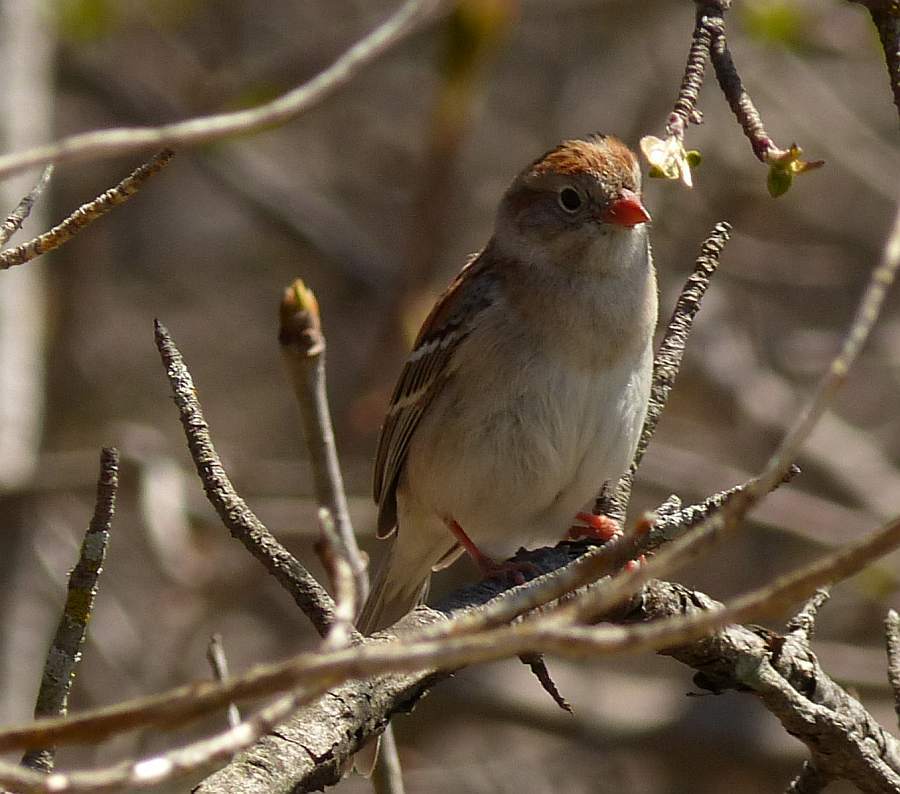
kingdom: Animalia
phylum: Chordata
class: Aves
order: Passeriformes
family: Passerellidae
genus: Spizella
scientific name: Spizella pusilla
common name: Field sparrow
